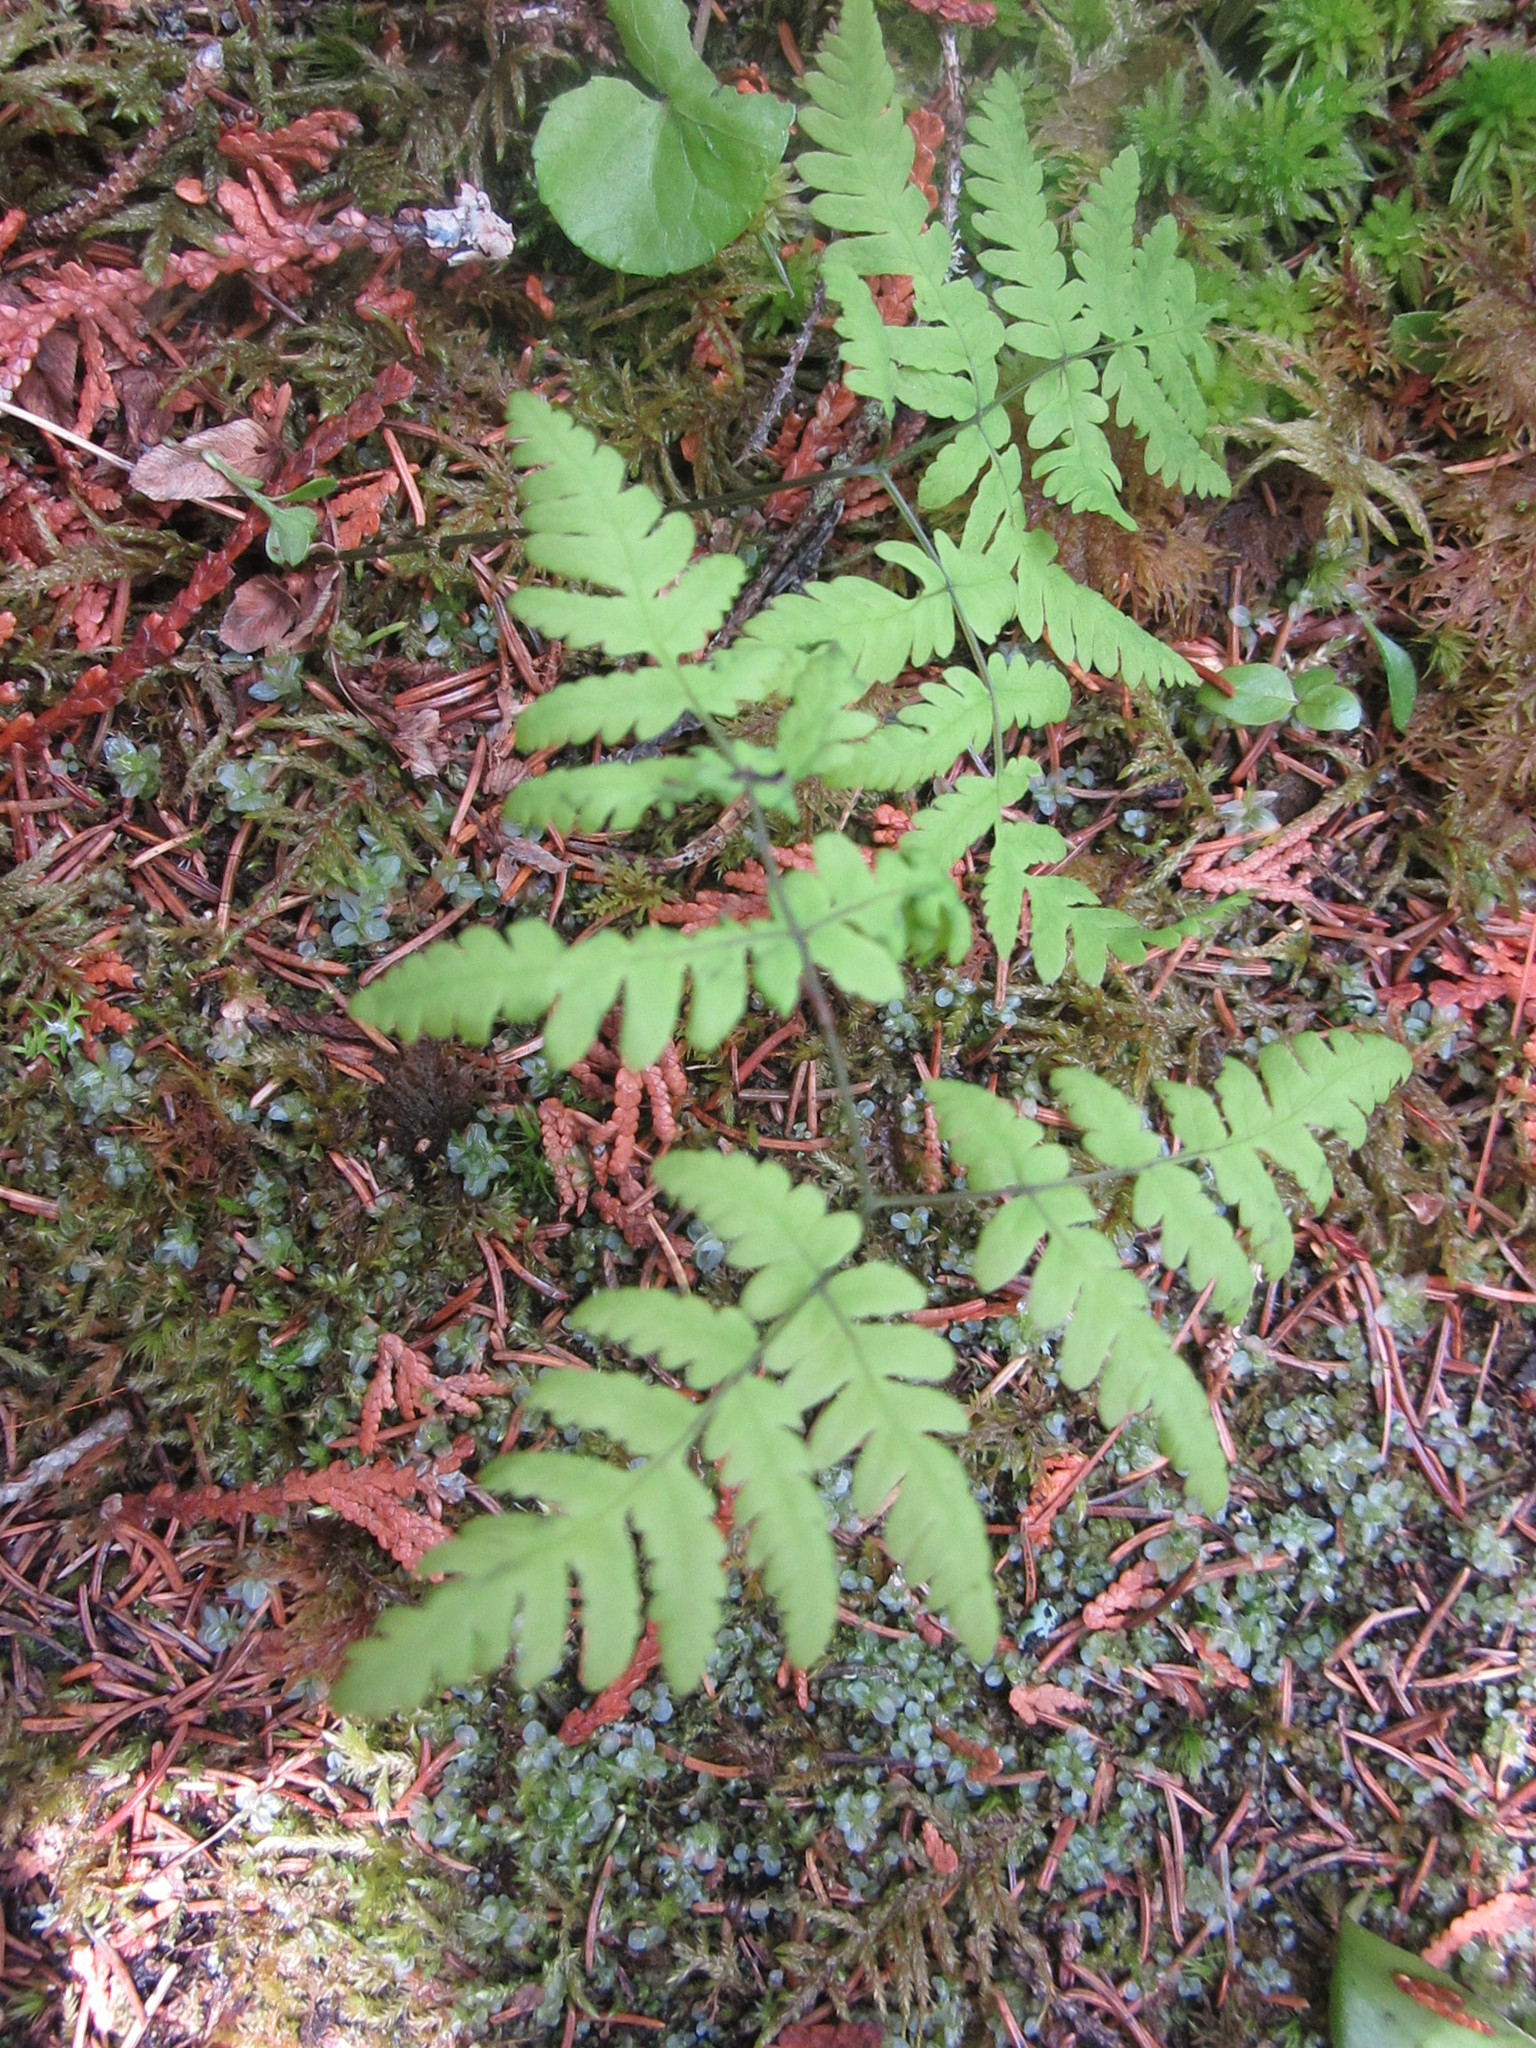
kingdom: Plantae
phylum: Tracheophyta
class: Polypodiopsida
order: Polypodiales
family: Cystopteridaceae
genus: Gymnocarpium
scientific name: Gymnocarpium dryopteris
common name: Oak fern
